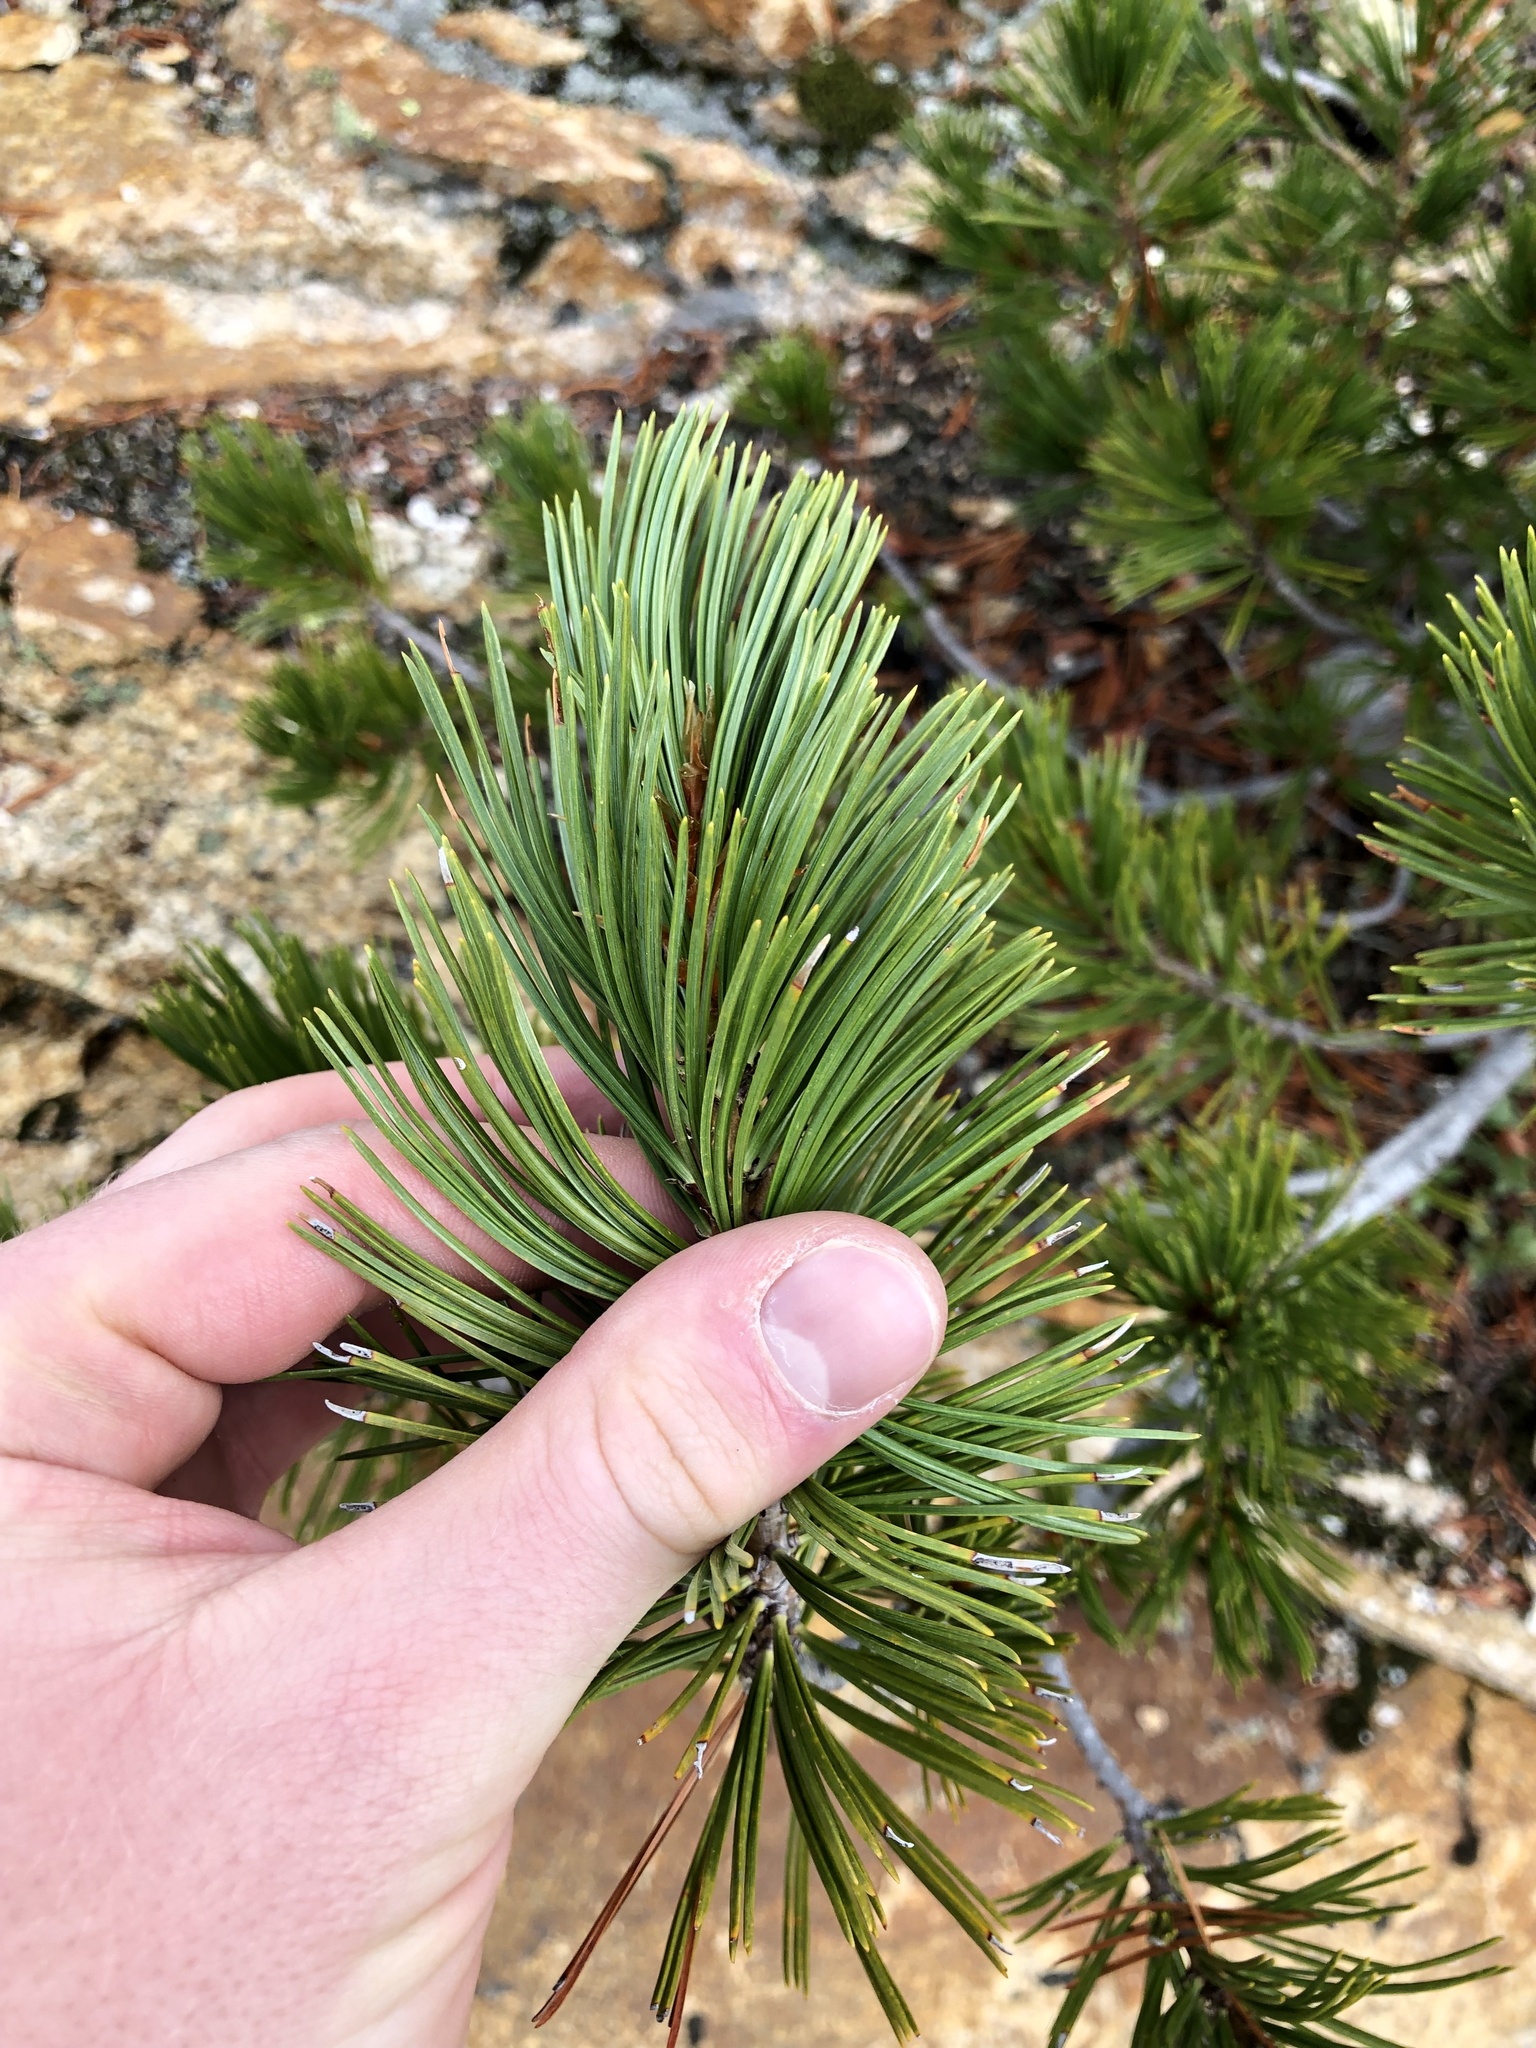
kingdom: Plantae
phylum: Tracheophyta
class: Pinopsida
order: Pinales
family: Pinaceae
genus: Pinus
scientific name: Pinus albicaulis
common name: Whitebark pine
